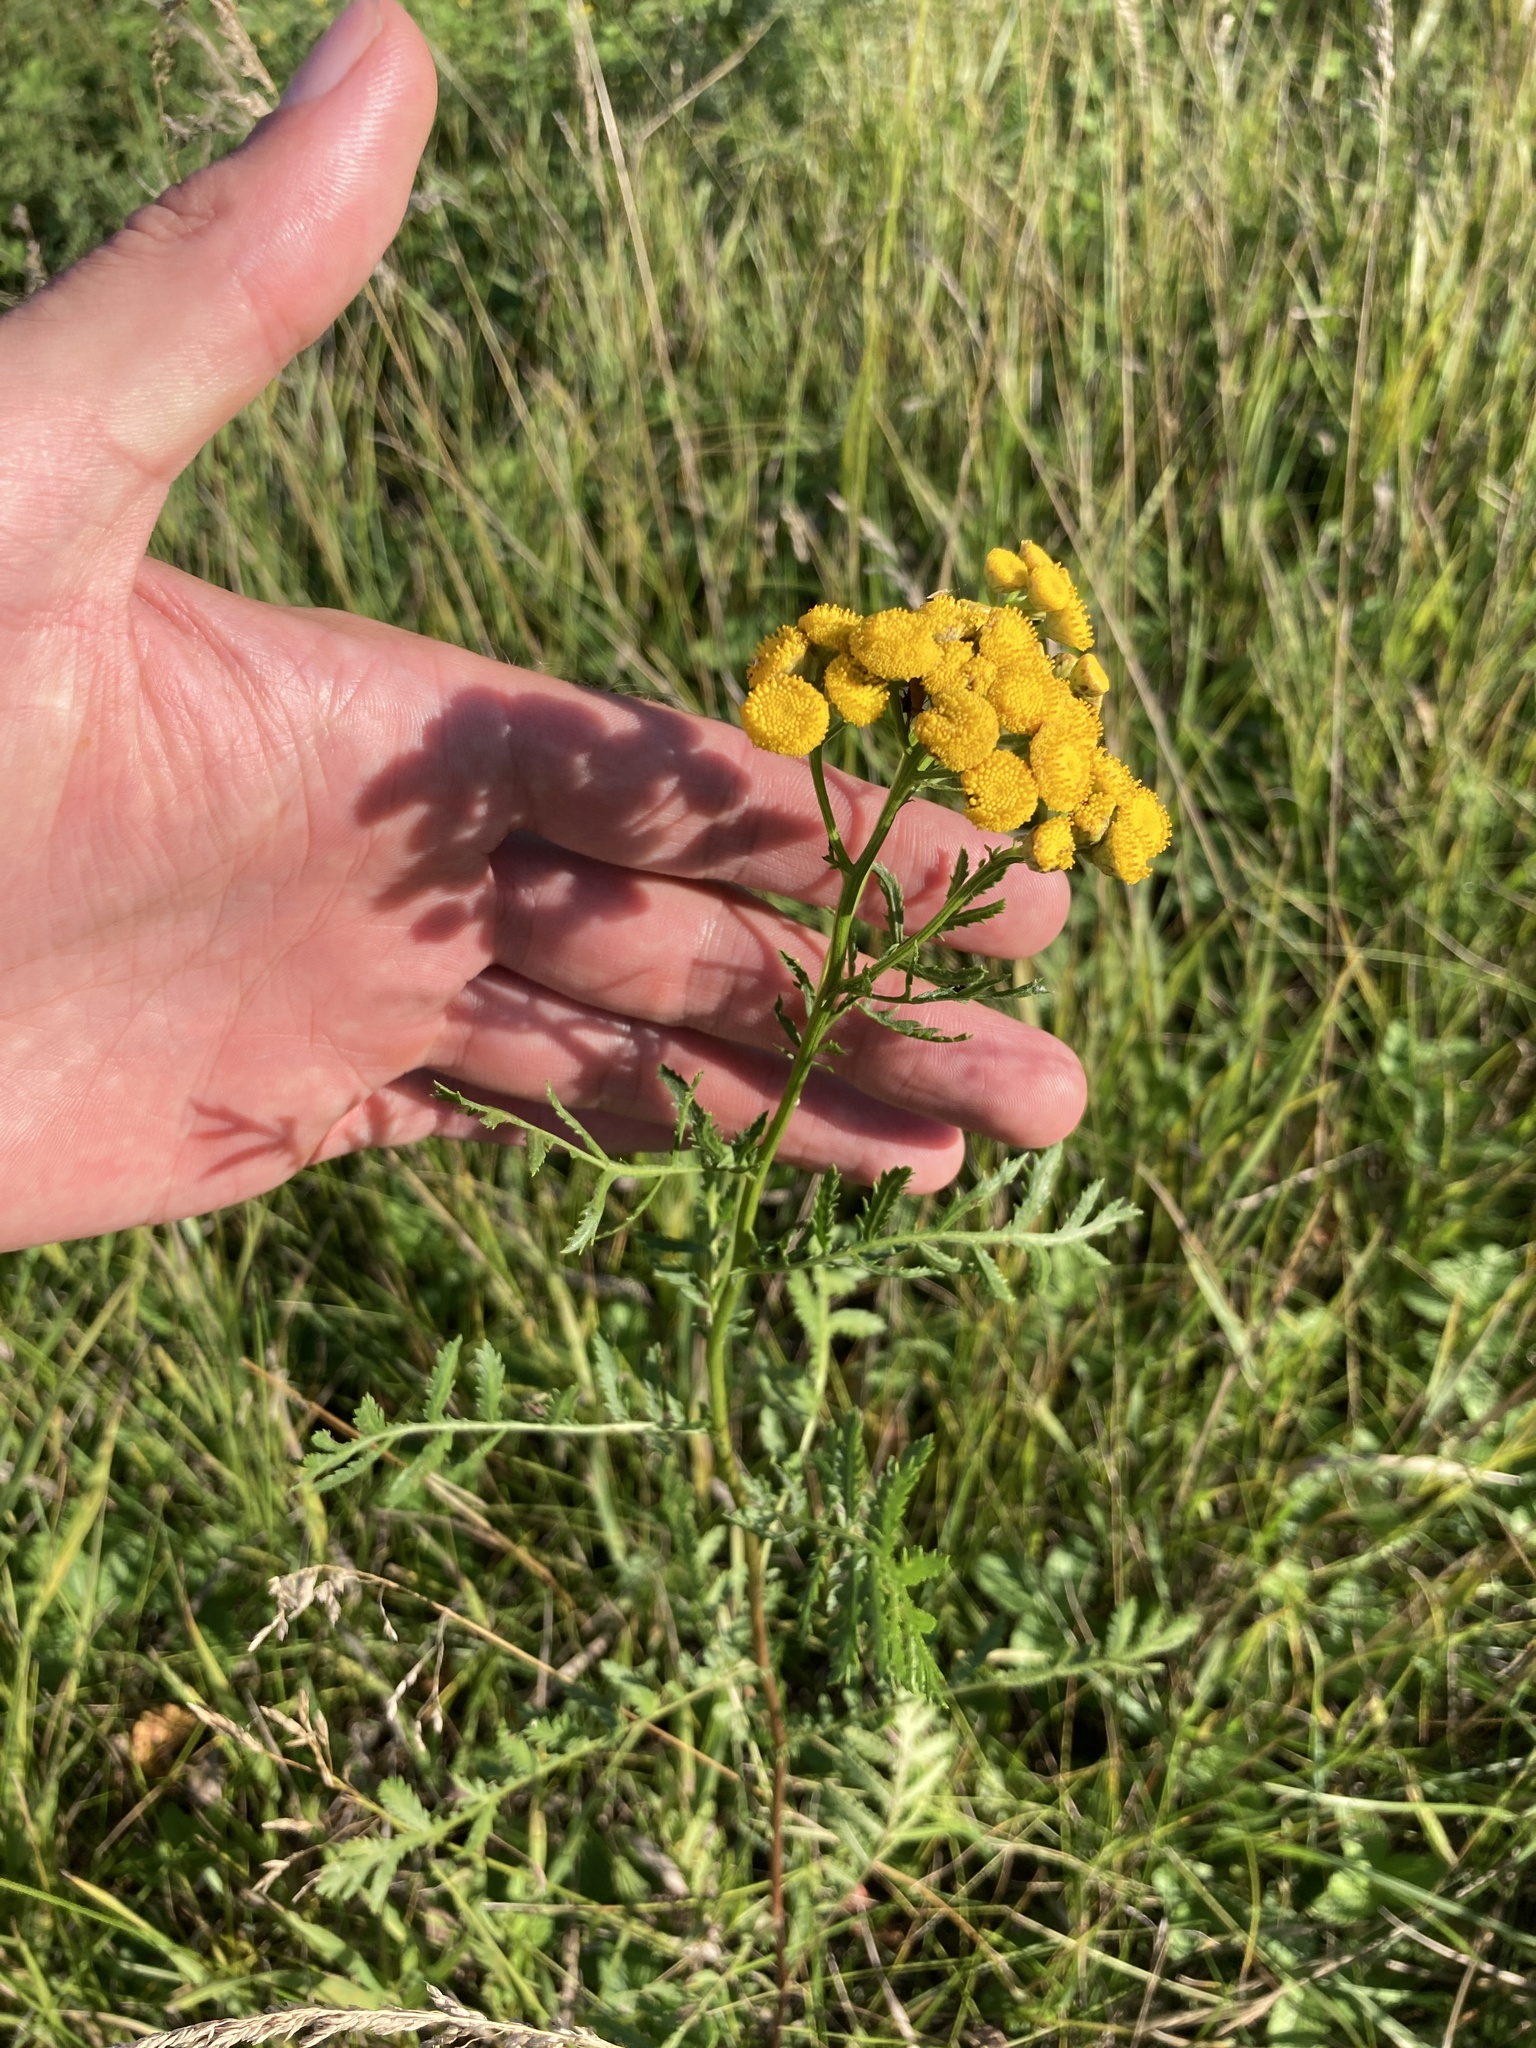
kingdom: Plantae
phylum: Tracheophyta
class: Magnoliopsida
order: Asterales
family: Asteraceae
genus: Tanacetum
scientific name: Tanacetum vulgare
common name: Common tansy
